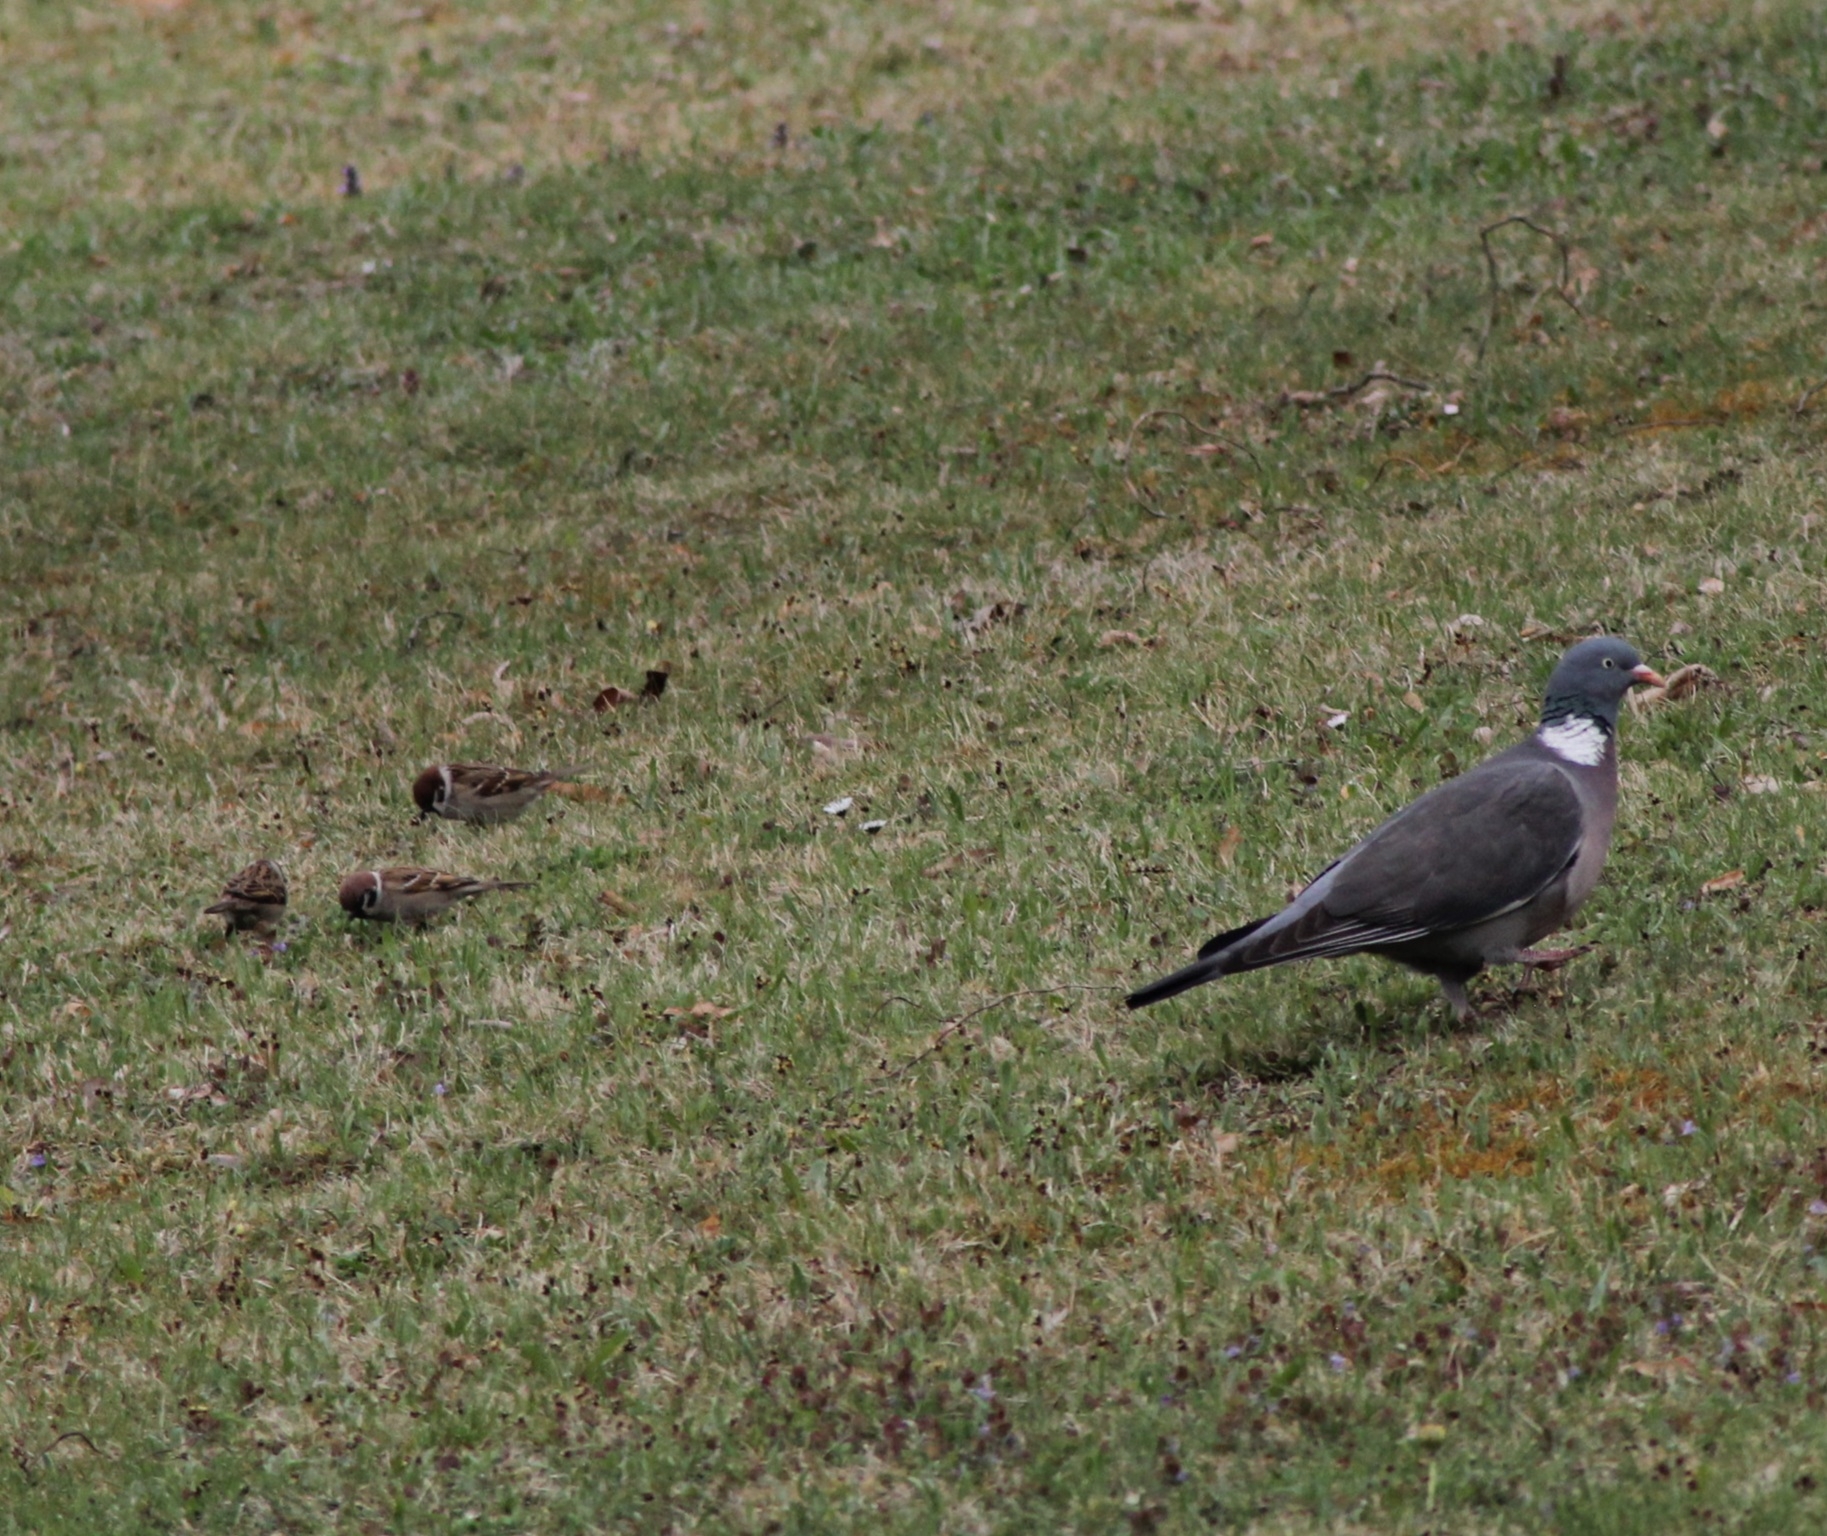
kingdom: Animalia
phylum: Chordata
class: Aves
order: Columbiformes
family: Columbidae
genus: Columba
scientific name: Columba palumbus
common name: Common wood pigeon
